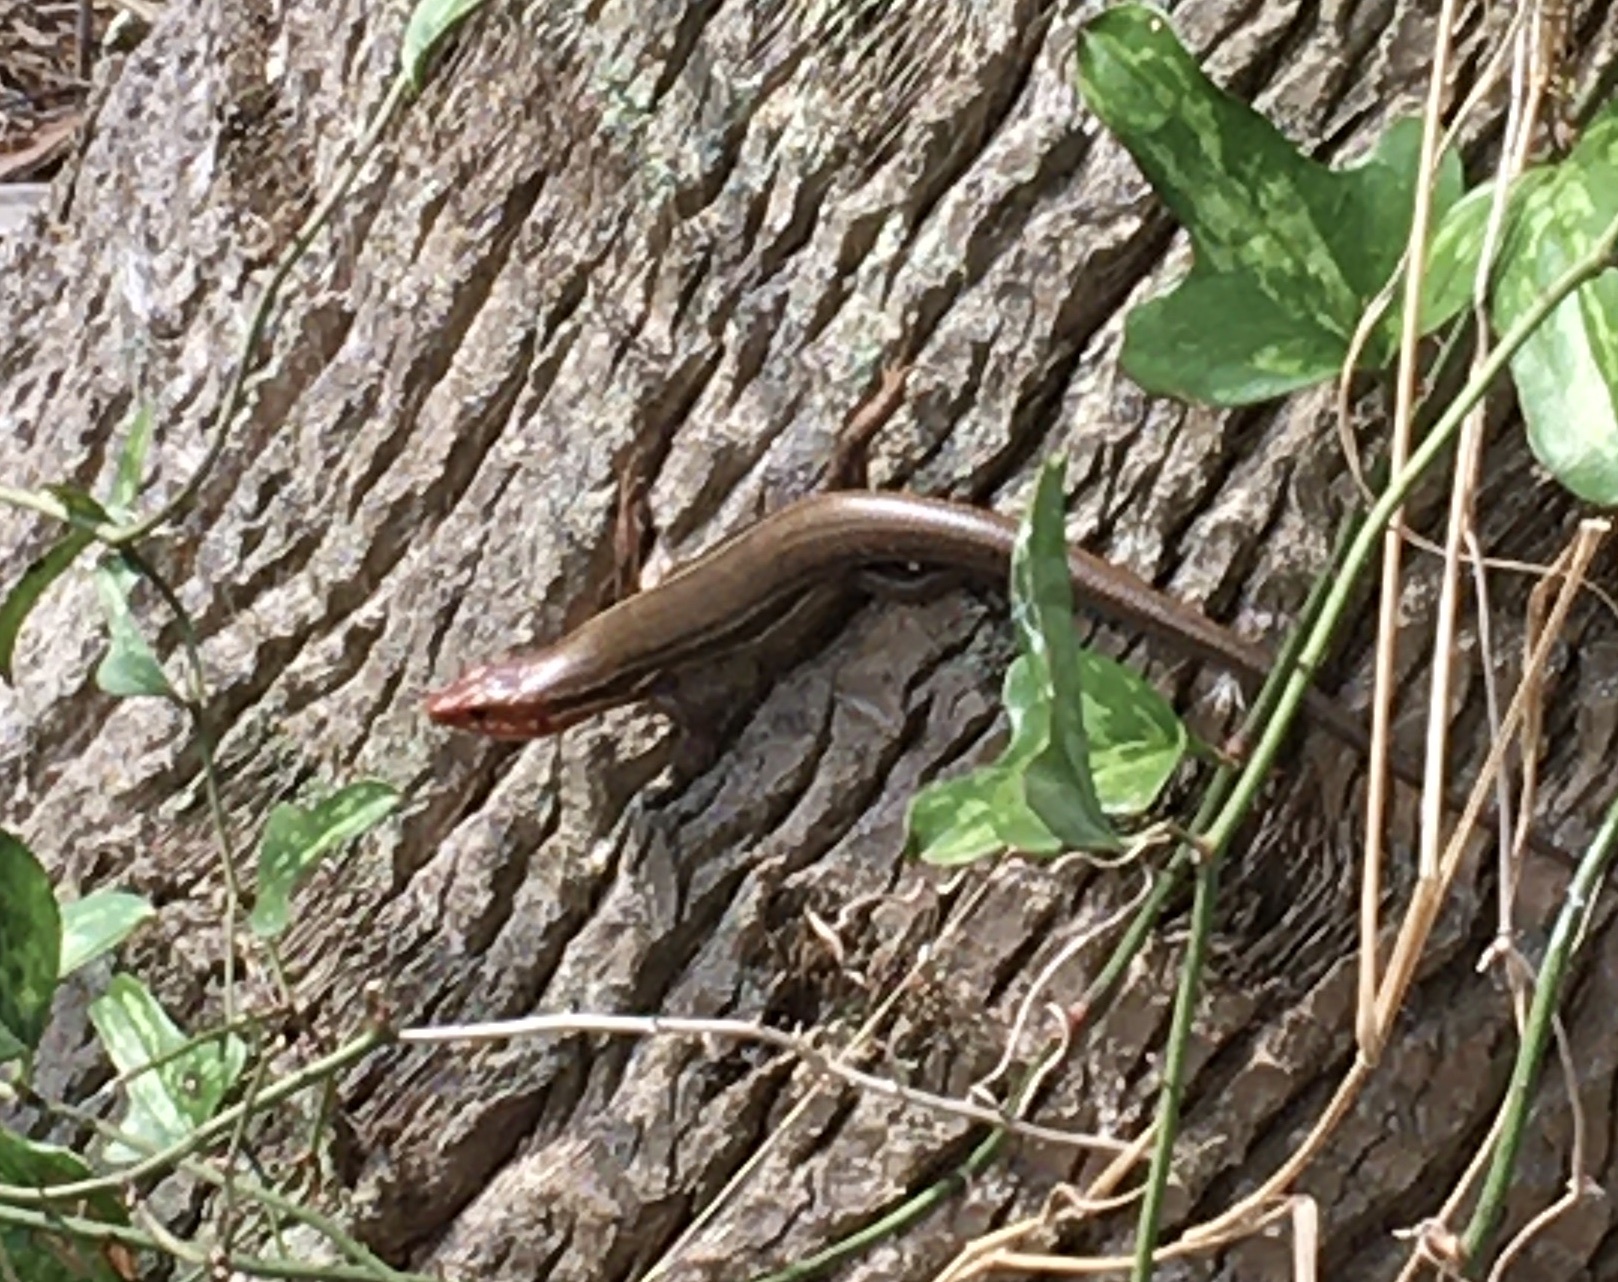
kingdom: Animalia
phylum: Chordata
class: Squamata
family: Scincidae
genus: Plestiodon
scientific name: Plestiodon inexpectatus
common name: Southeastern five-lined skink
